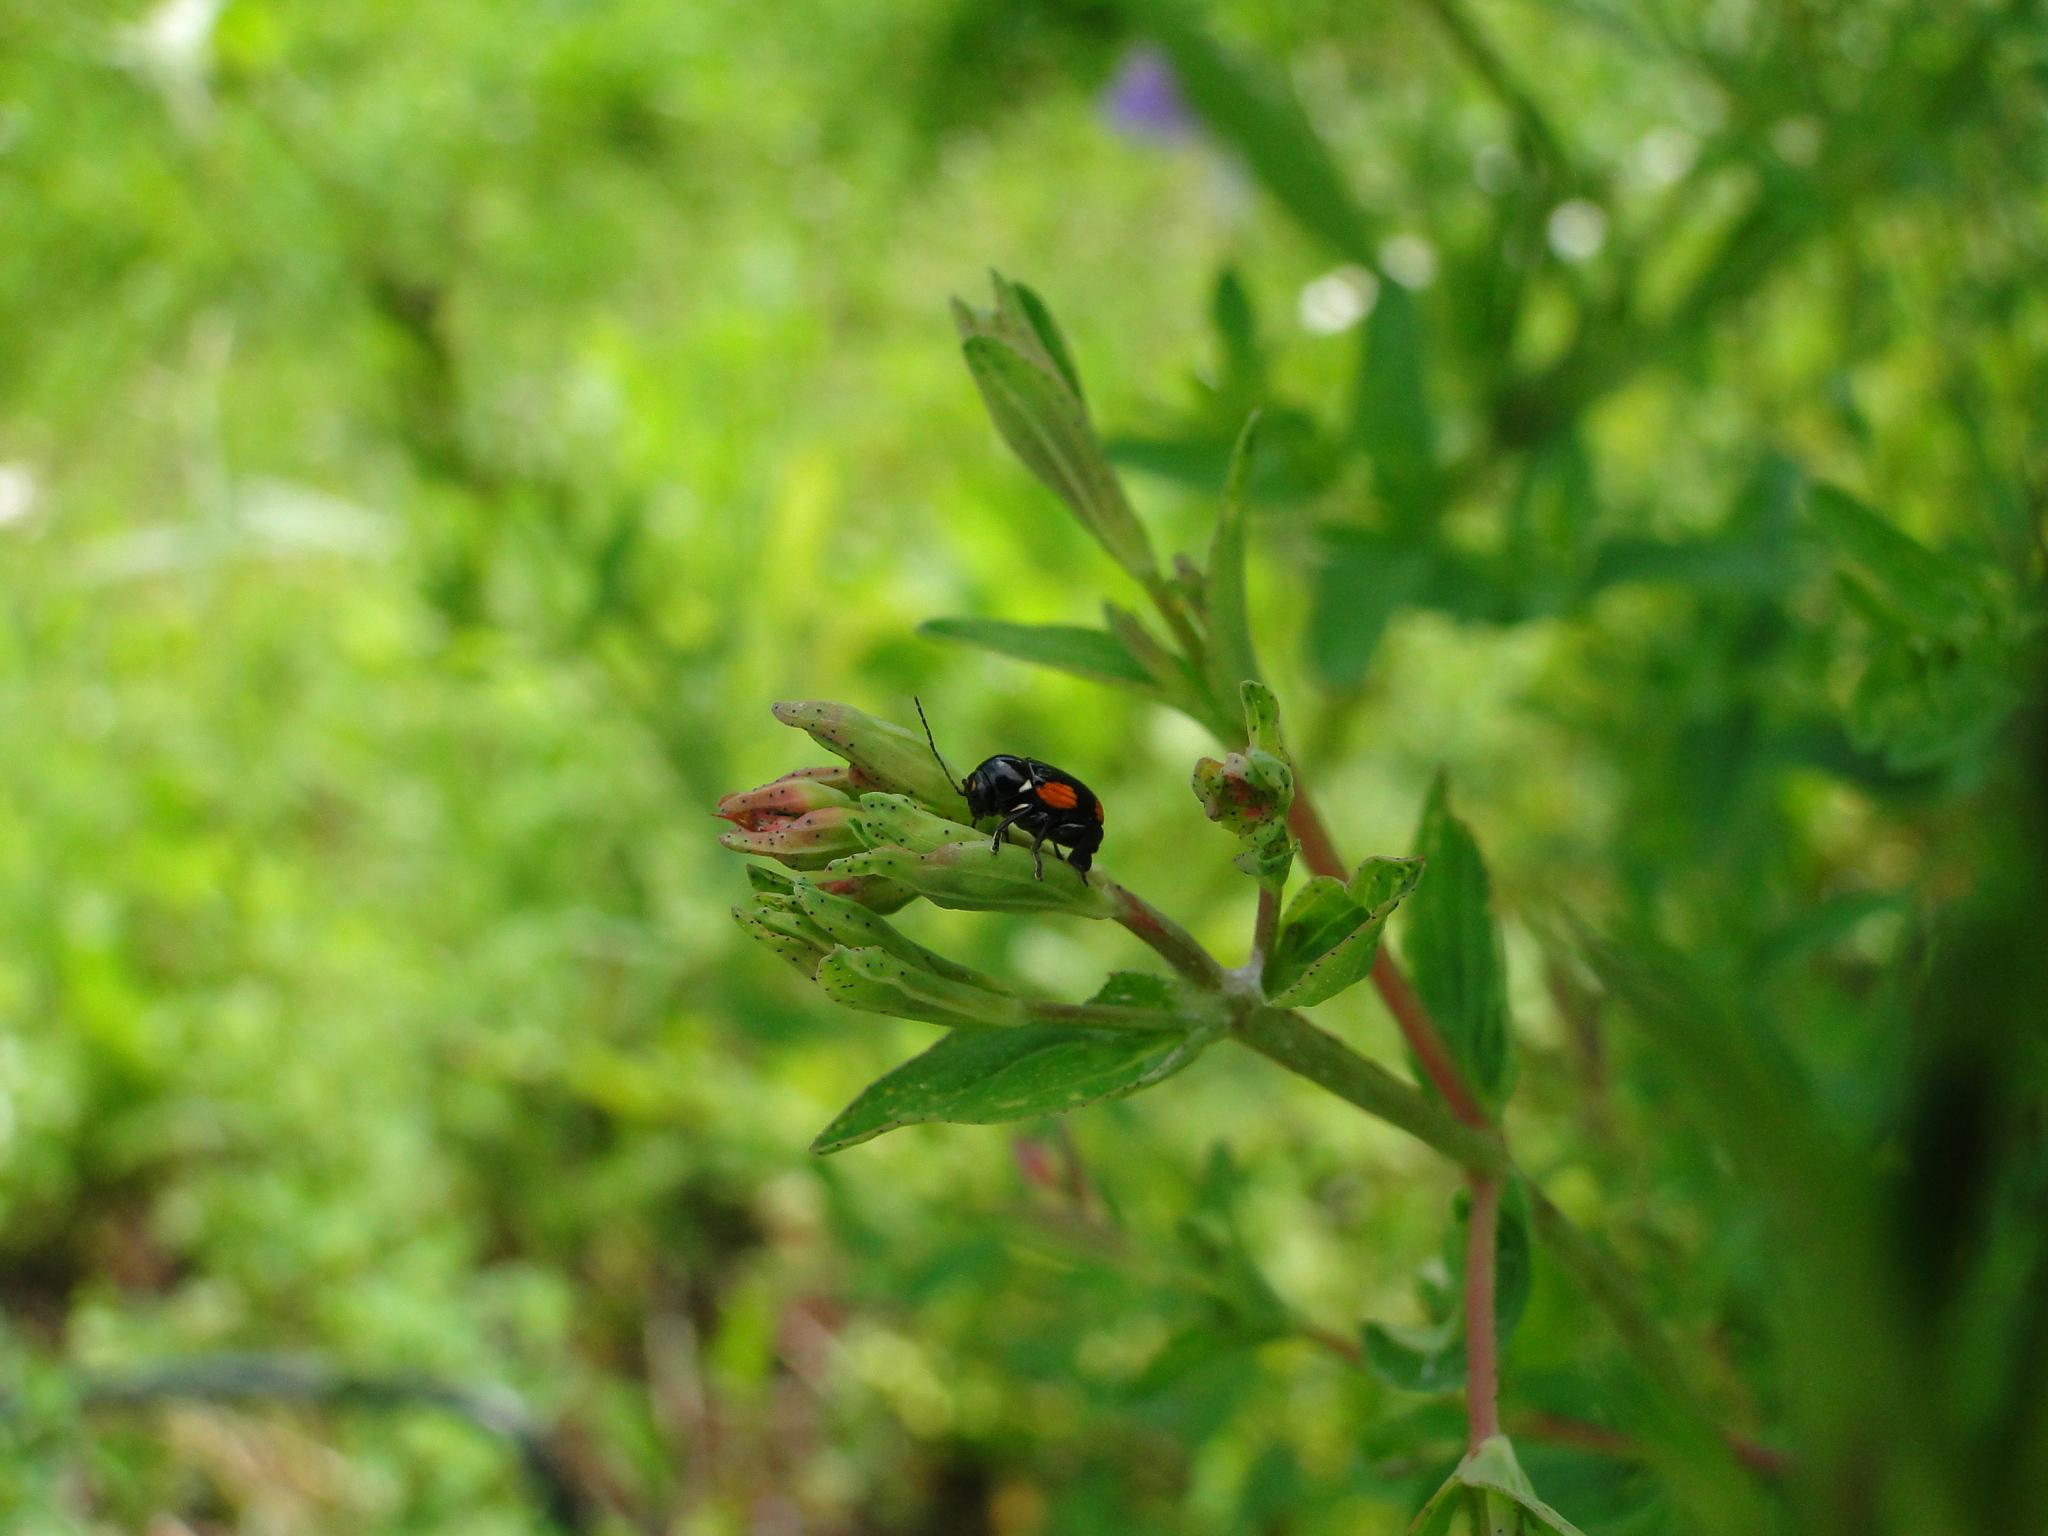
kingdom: Animalia
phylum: Arthropoda
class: Insecta
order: Coleoptera
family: Chrysomelidae
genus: Cryptocephalus
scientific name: Cryptocephalus moraei
